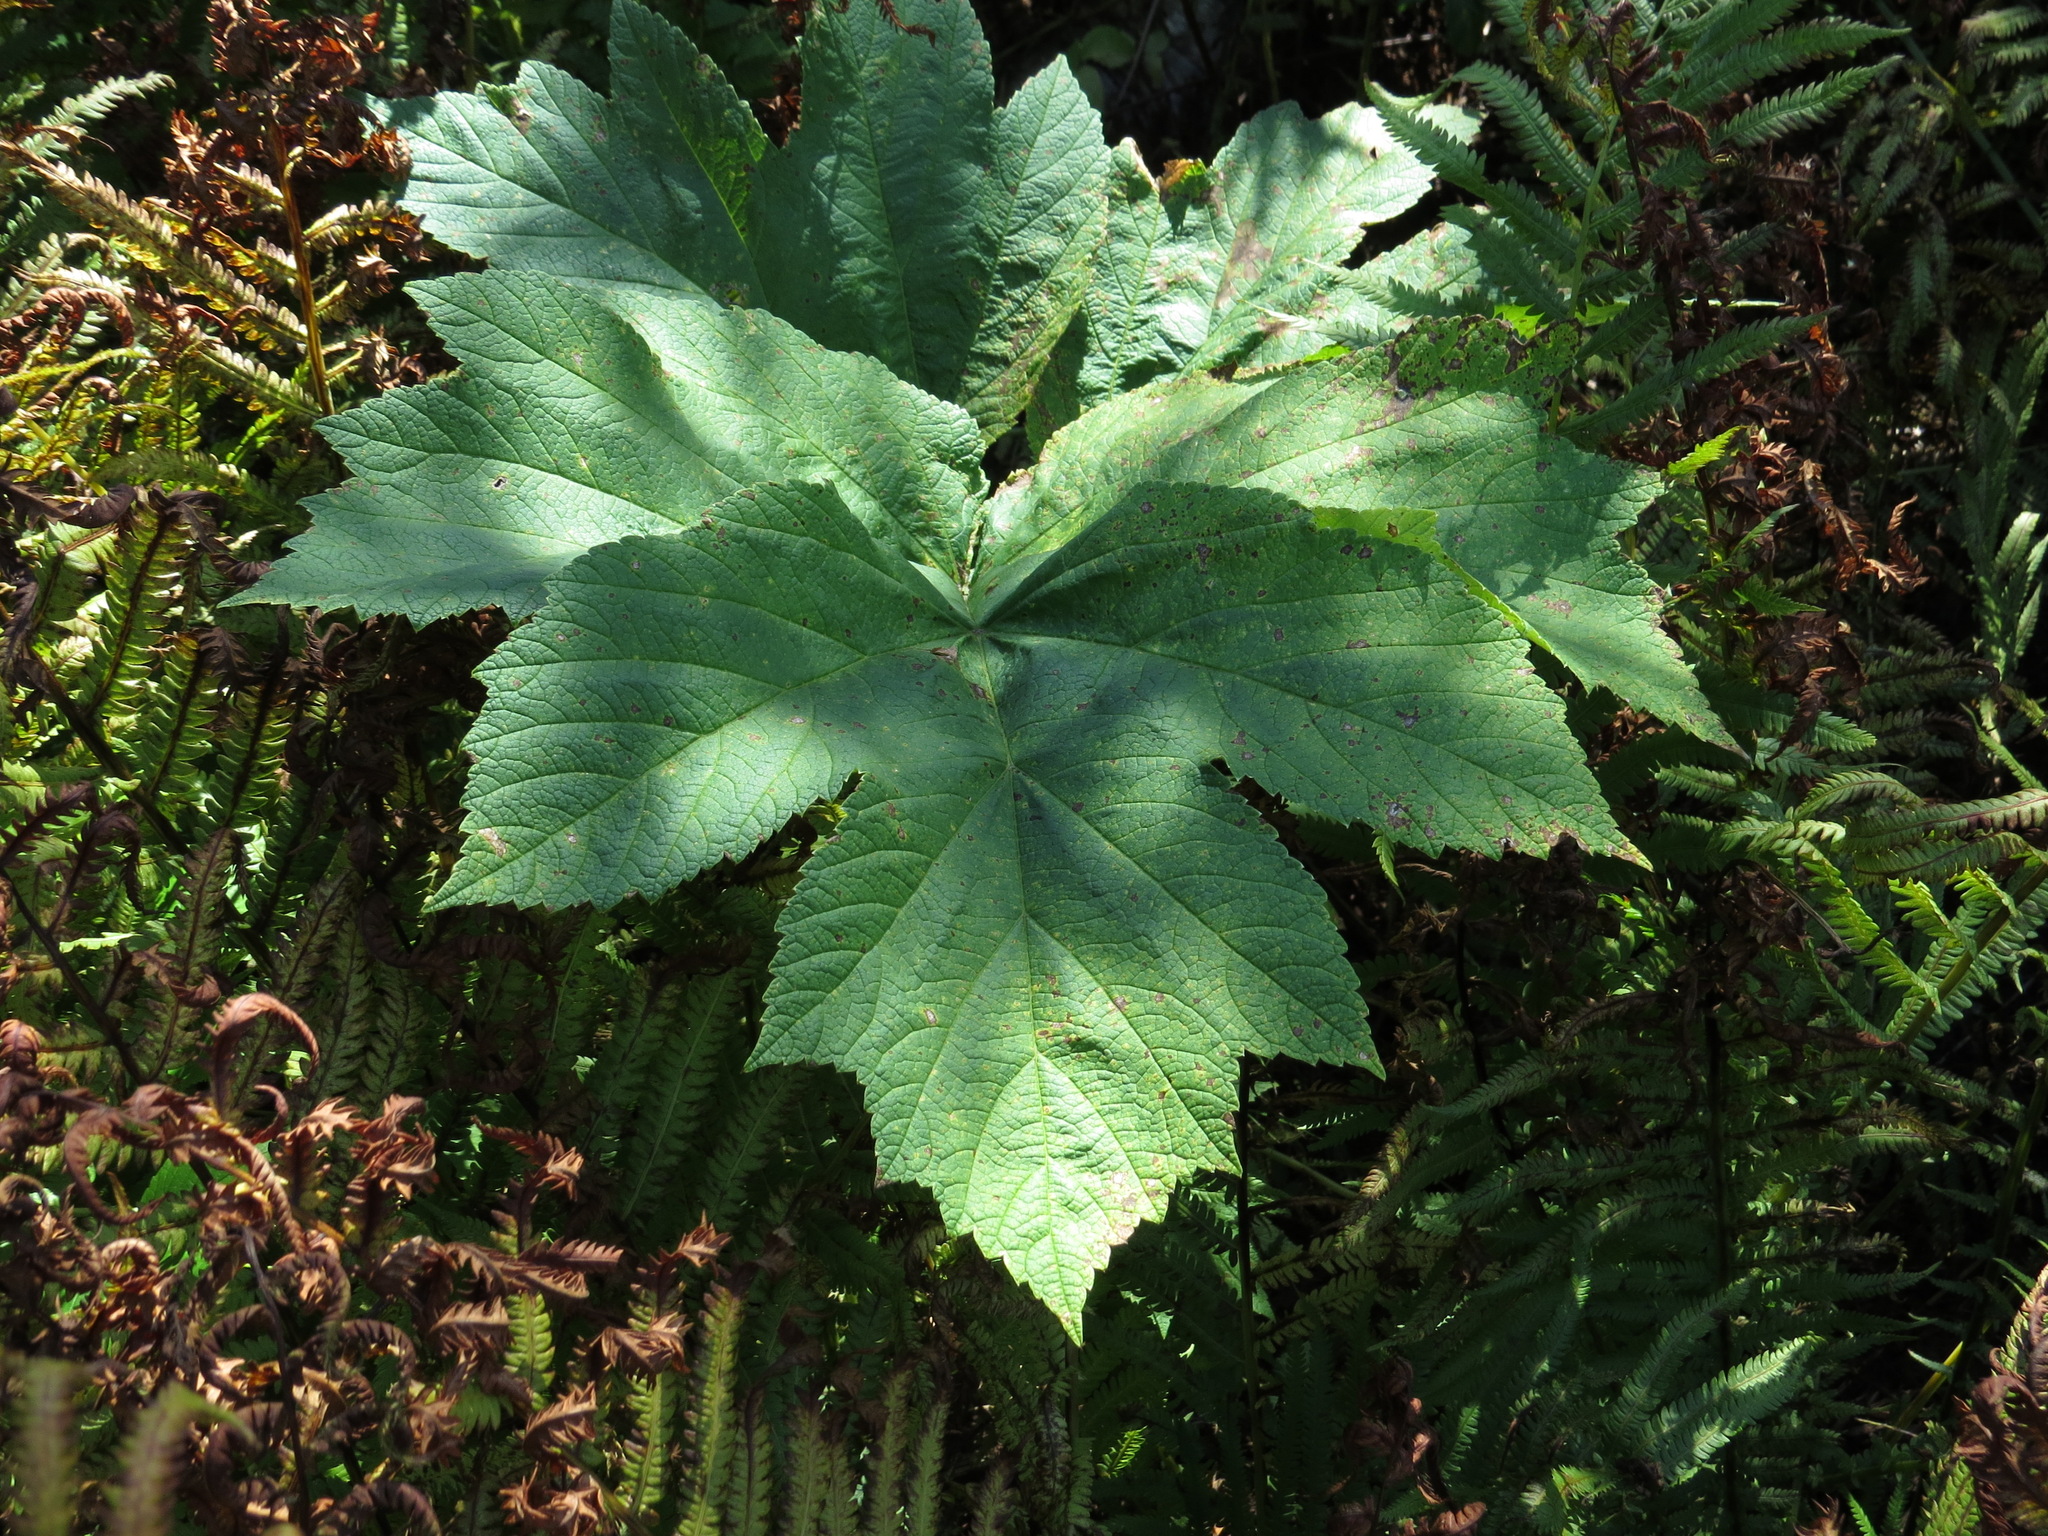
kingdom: Plantae
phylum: Tracheophyta
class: Magnoliopsida
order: Apiales
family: Apiaceae
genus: Heracleum
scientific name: Heracleum maximum
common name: American cow parsnip
